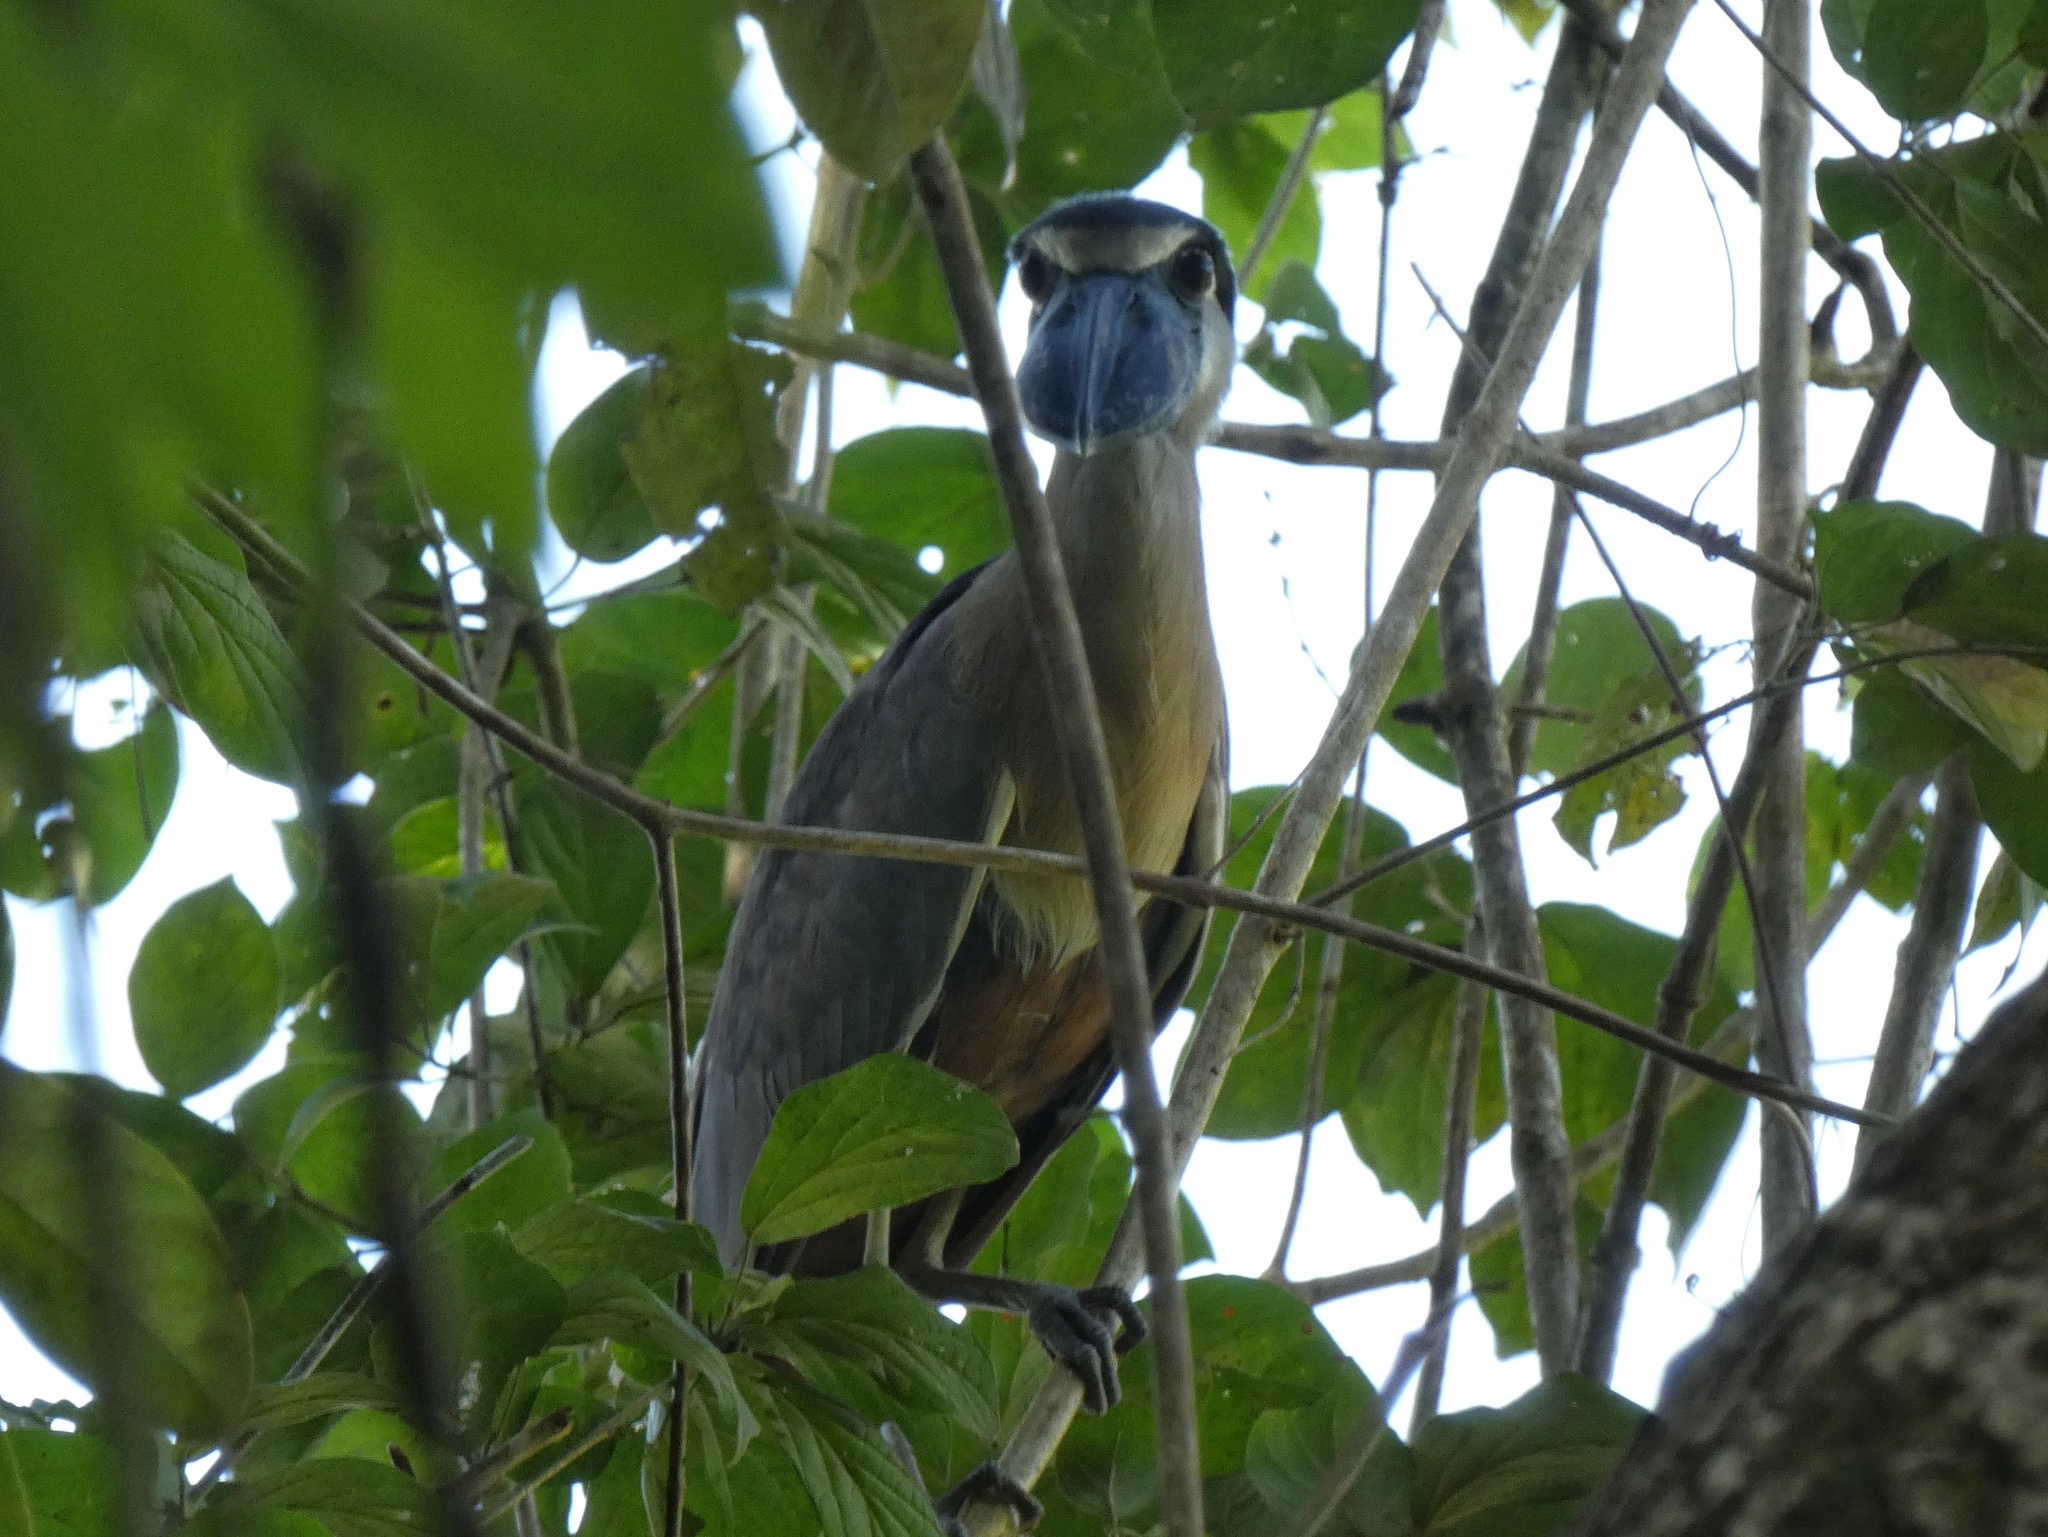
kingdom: Animalia
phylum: Chordata
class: Aves
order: Pelecaniformes
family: Ardeidae
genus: Cochlearius
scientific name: Cochlearius cochlearius
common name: Boat-billed heron
